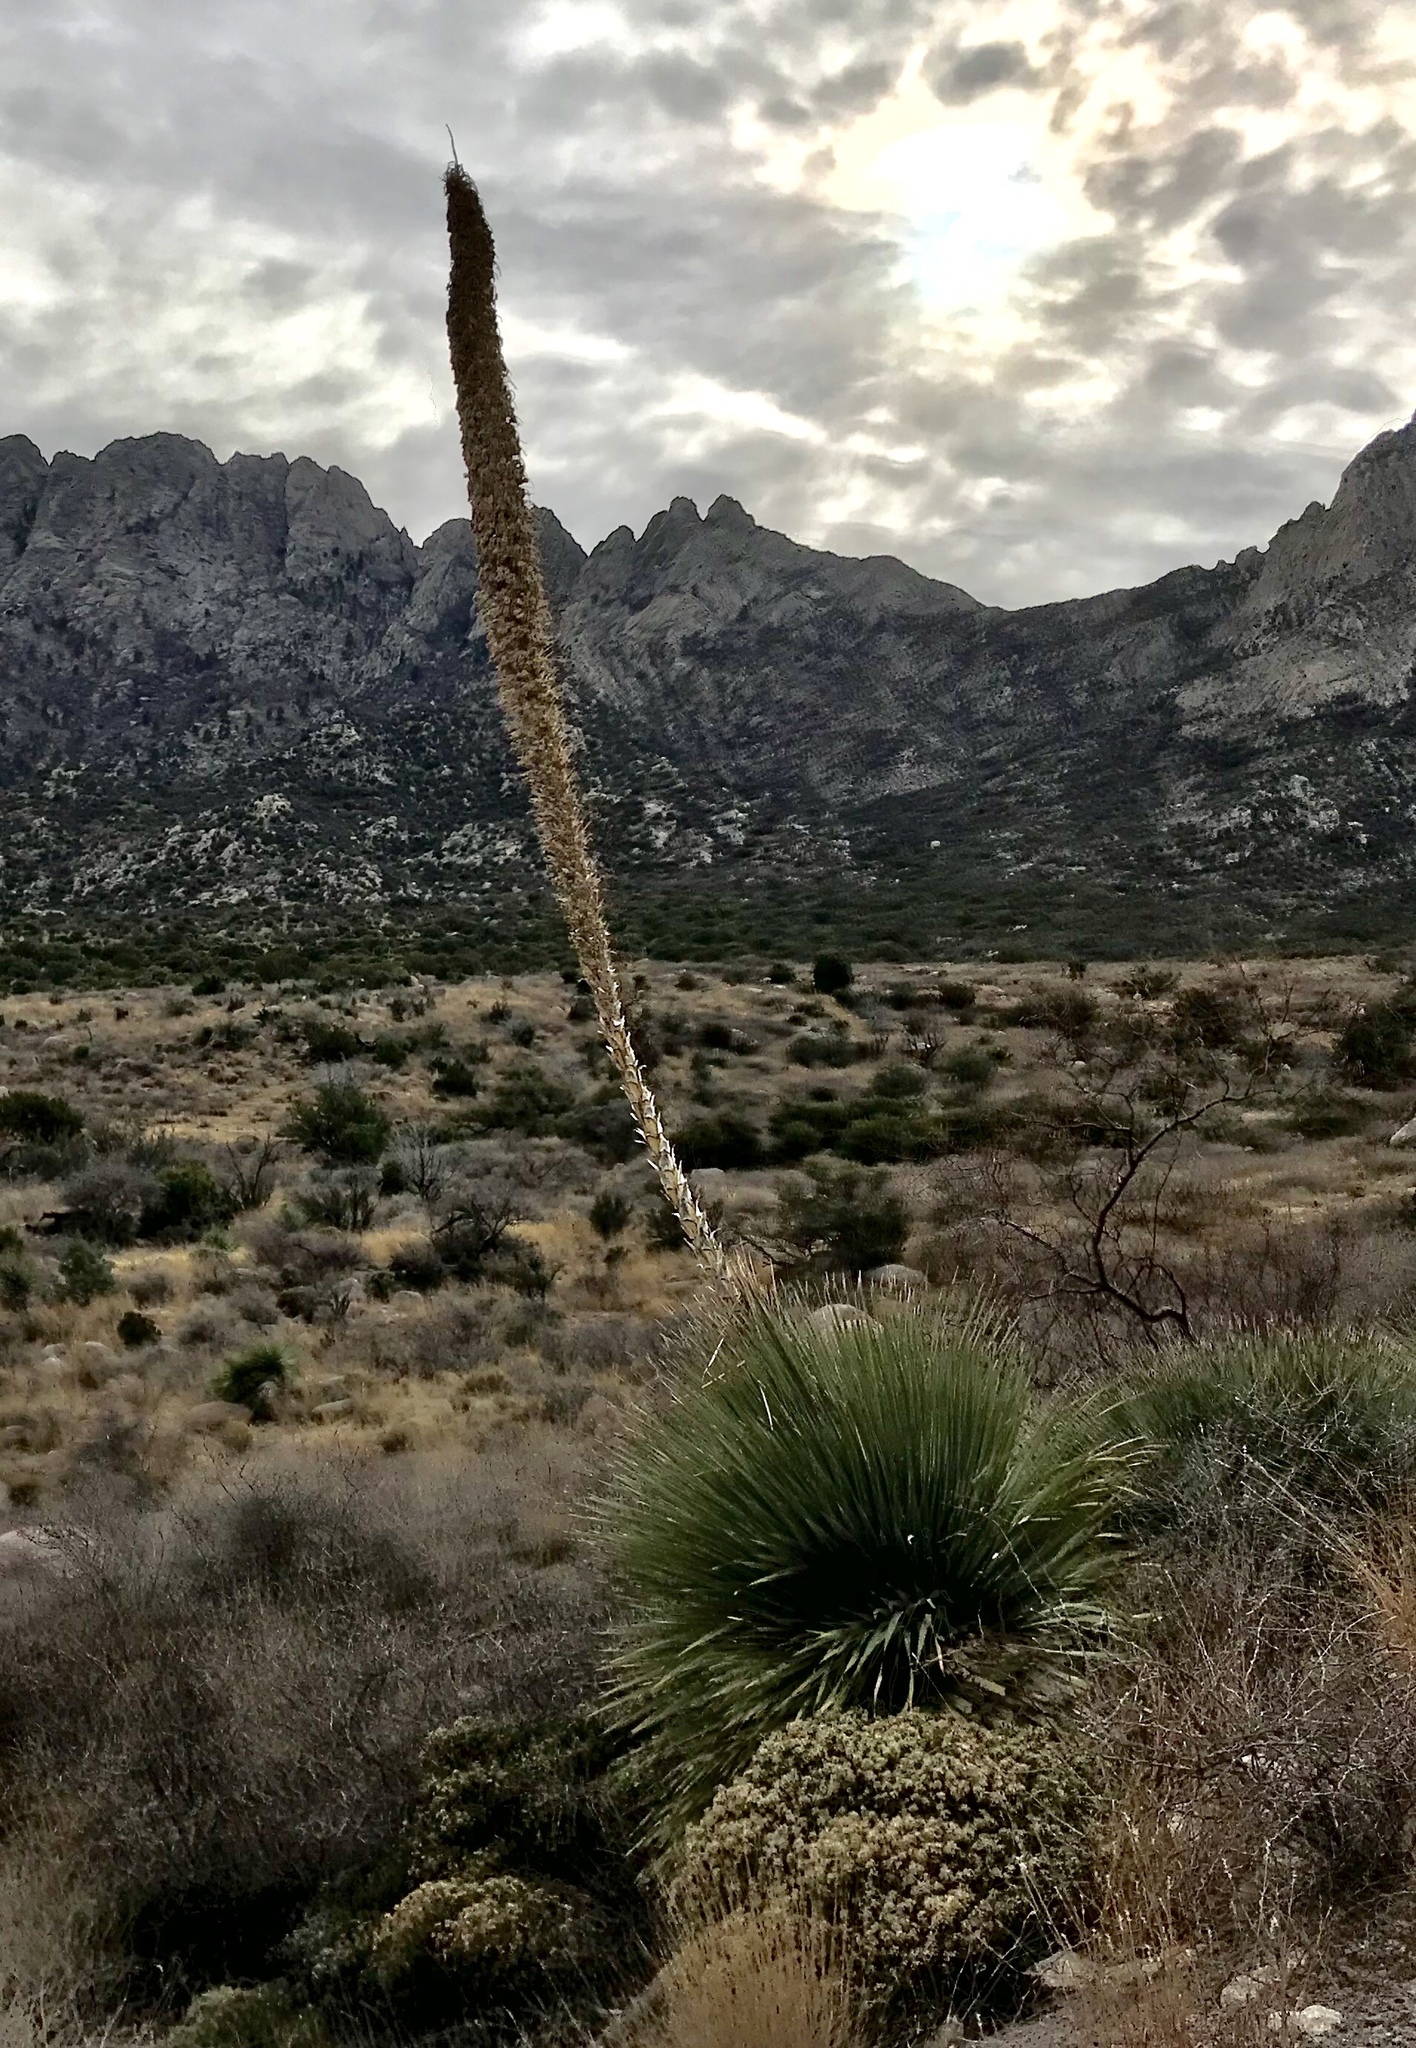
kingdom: Plantae
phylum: Tracheophyta
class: Liliopsida
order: Asparagales
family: Asparagaceae
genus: Dasylirion
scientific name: Dasylirion wheeleri
